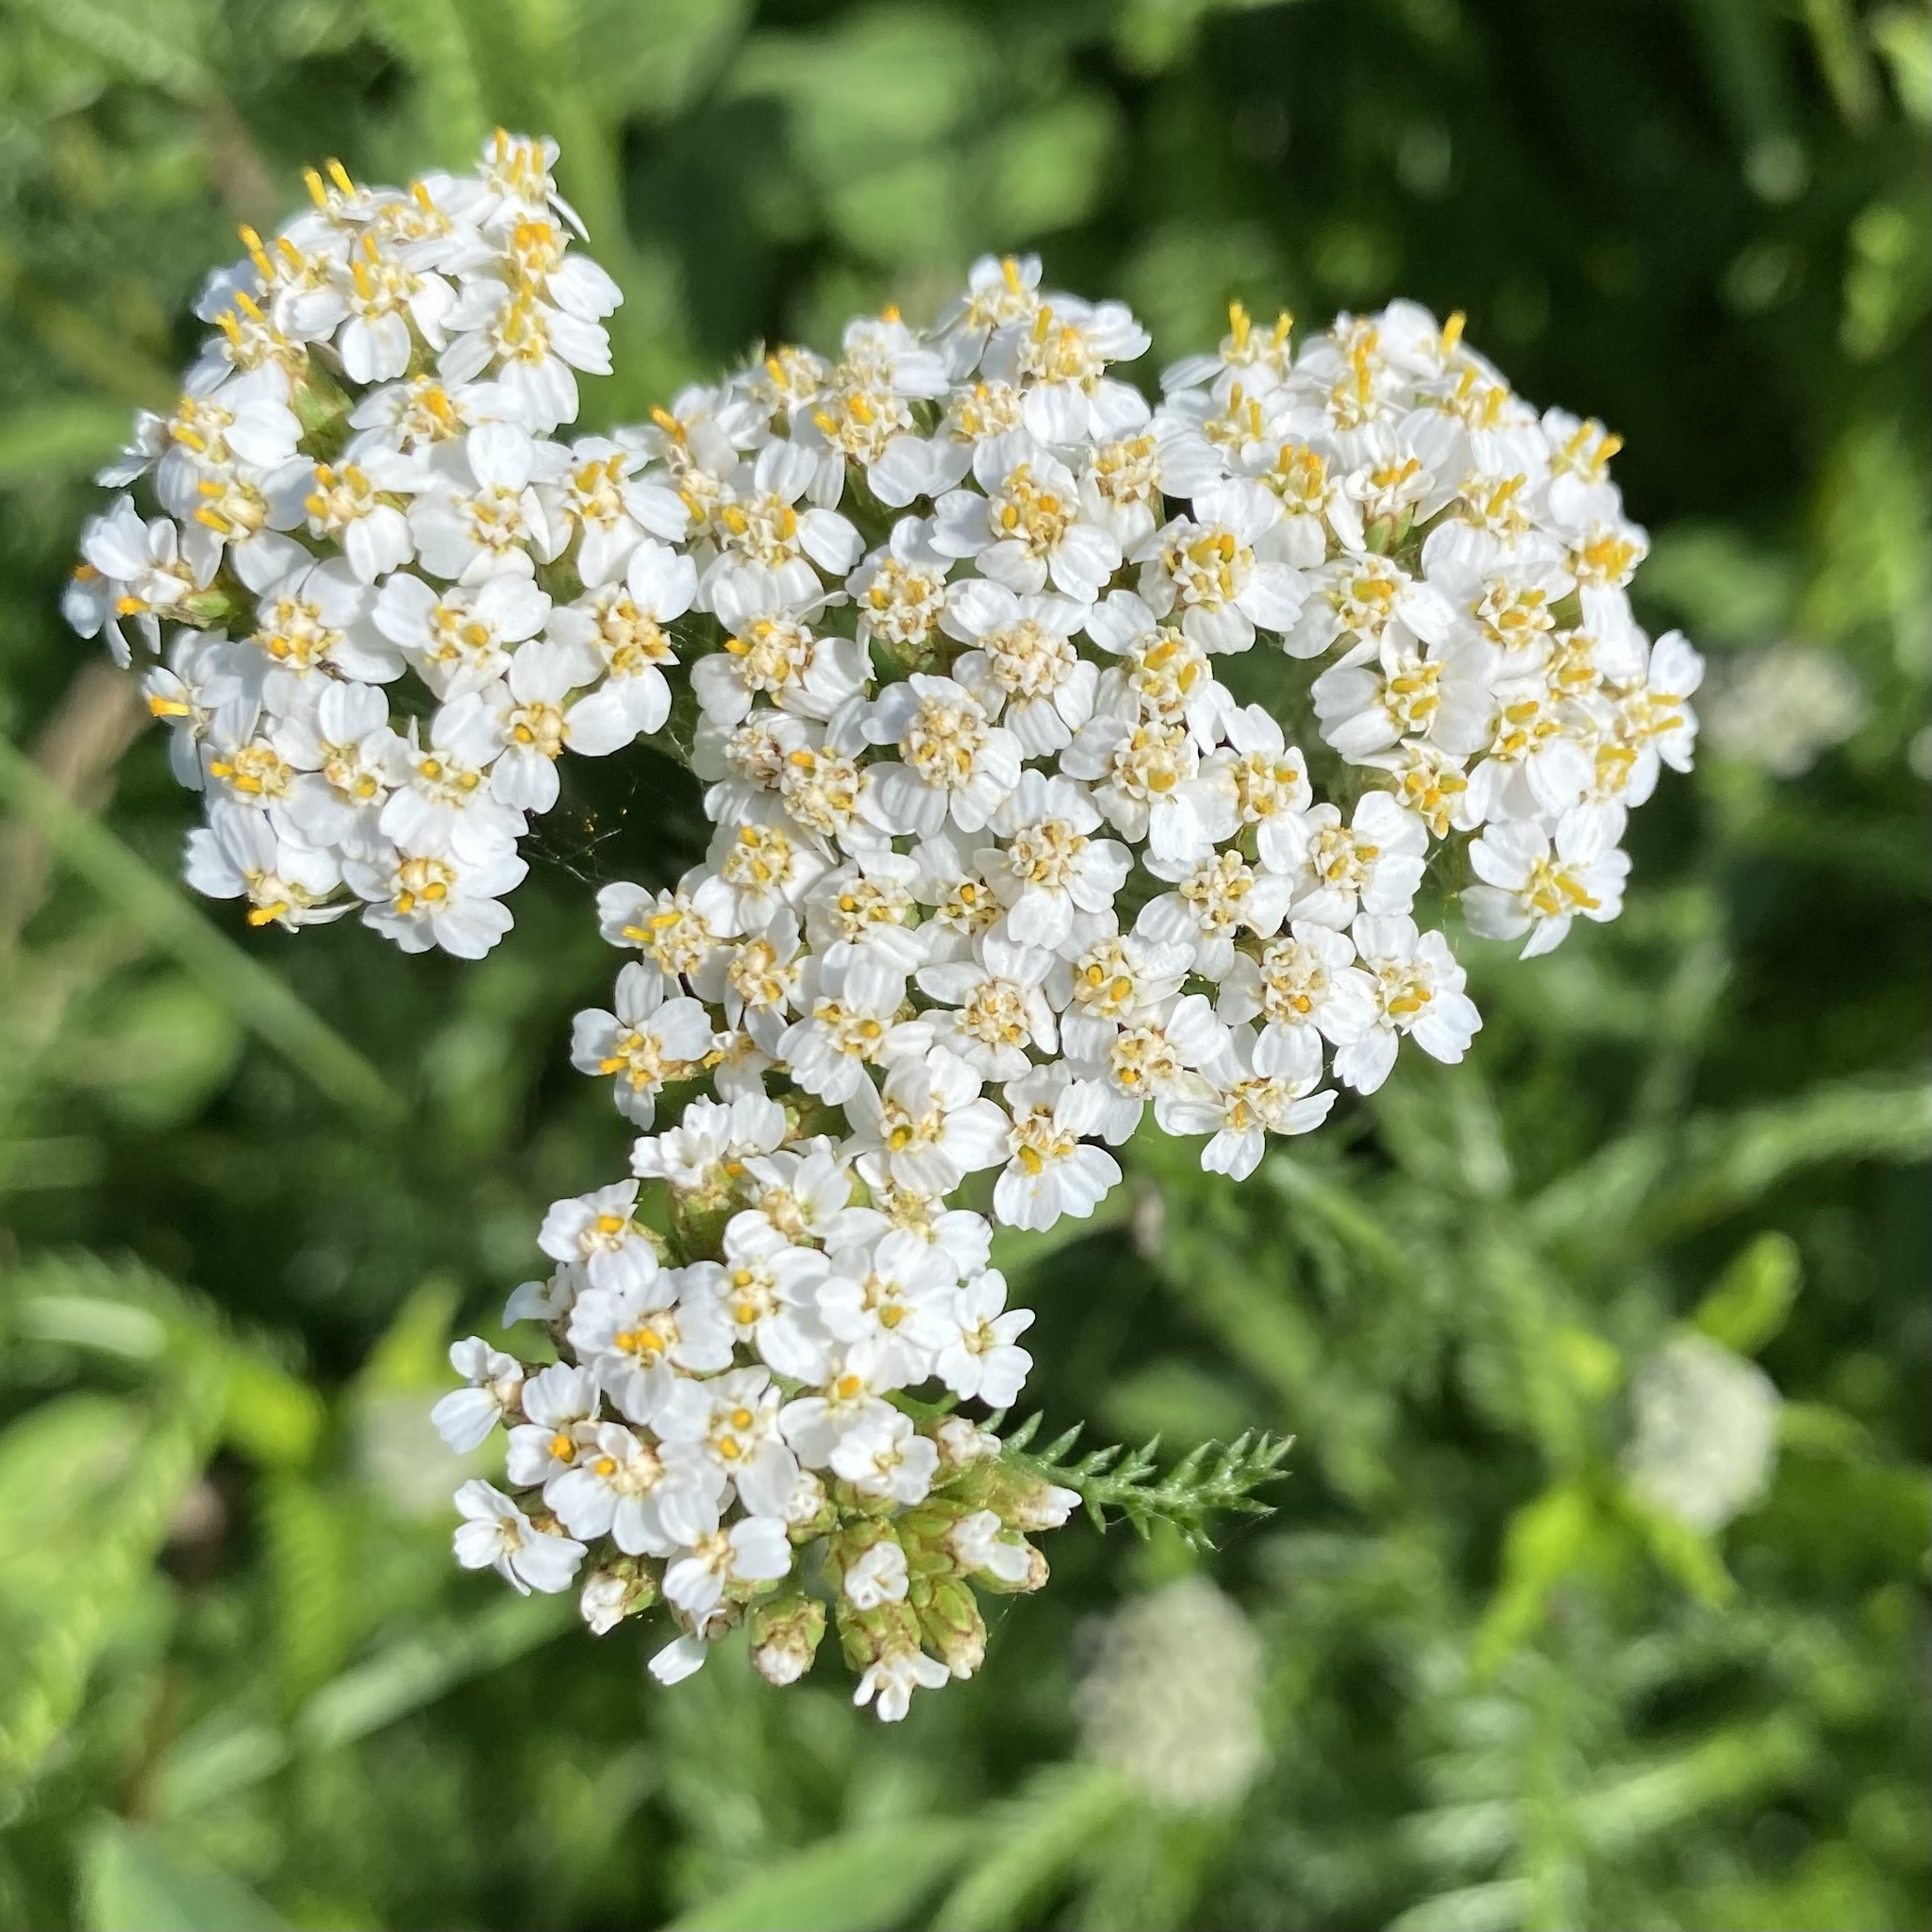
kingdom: Plantae
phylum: Tracheophyta
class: Magnoliopsida
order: Asterales
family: Asteraceae
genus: Achillea
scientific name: Achillea millefolium
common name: Yarrow
